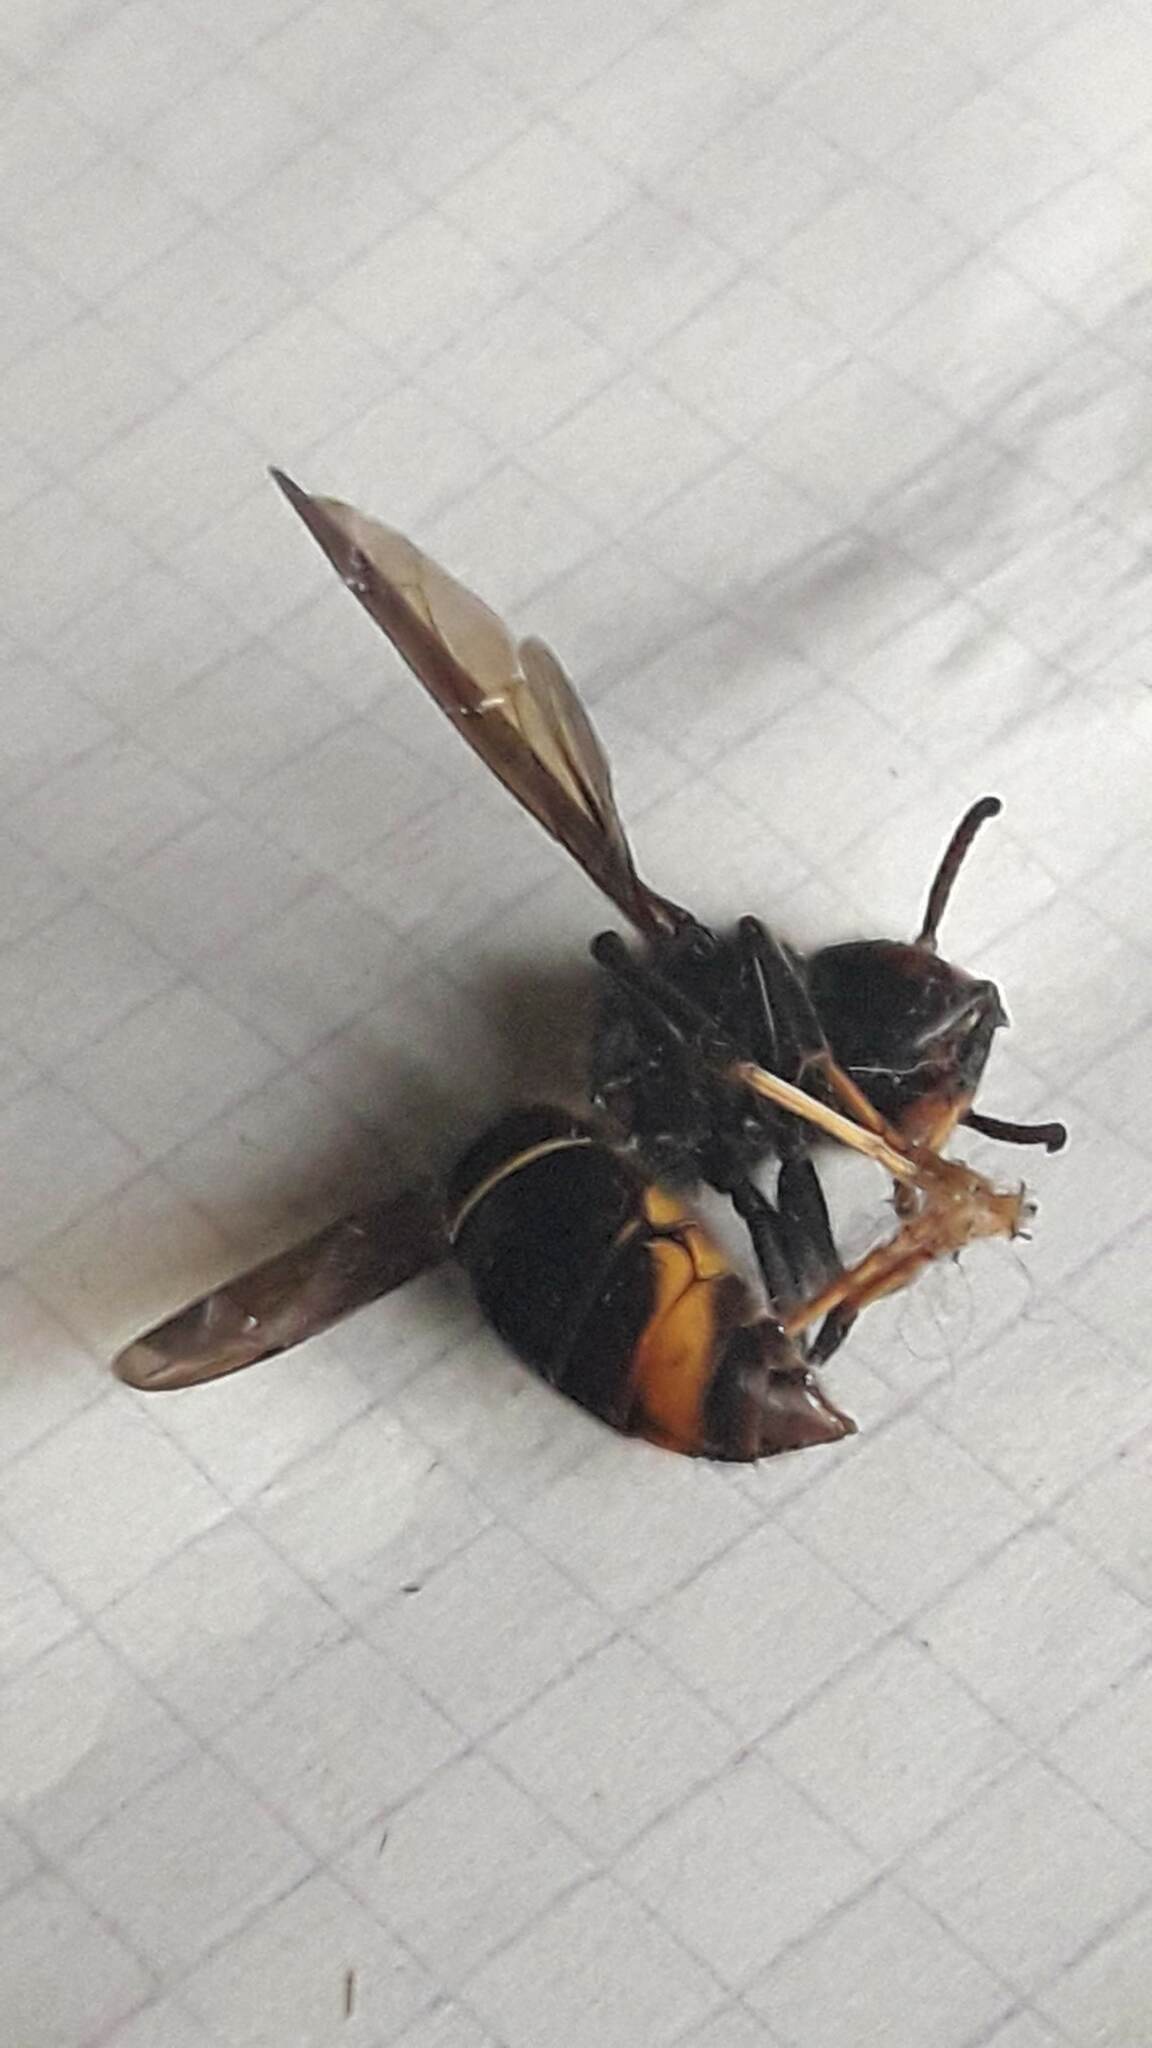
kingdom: Animalia
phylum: Arthropoda
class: Insecta
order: Hymenoptera
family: Vespidae
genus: Vespa
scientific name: Vespa velutina
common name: Asian hornet
